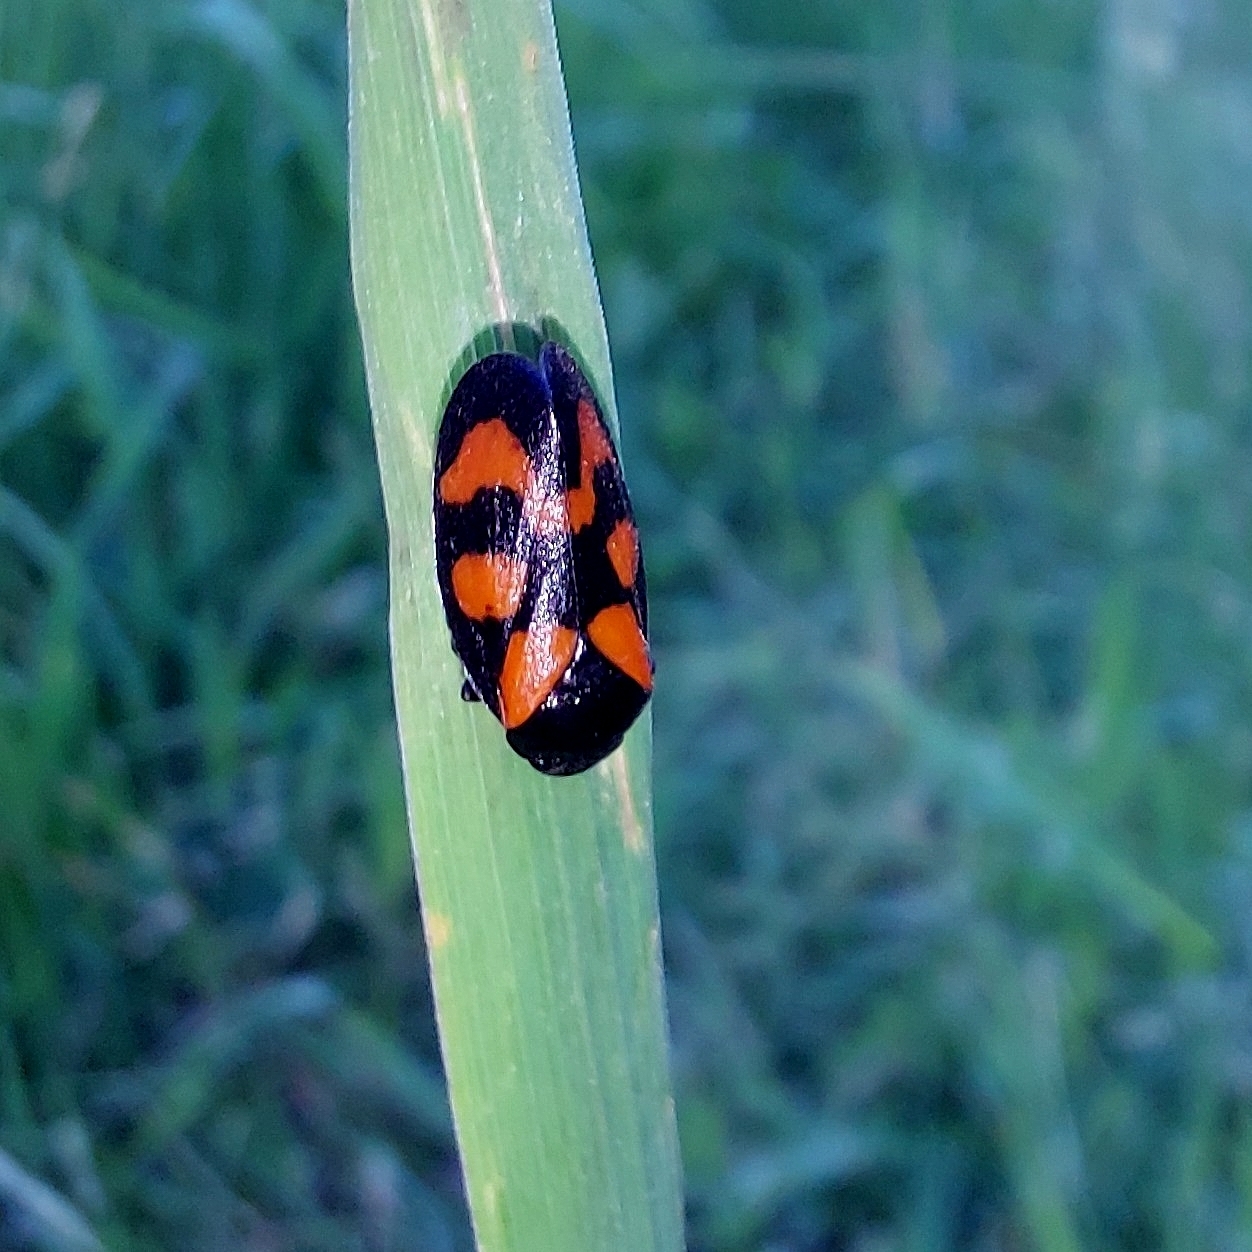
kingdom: Animalia
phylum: Arthropoda
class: Insecta
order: Hemiptera
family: Cercopidae
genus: Cercopis
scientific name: Cercopis vulnerata
